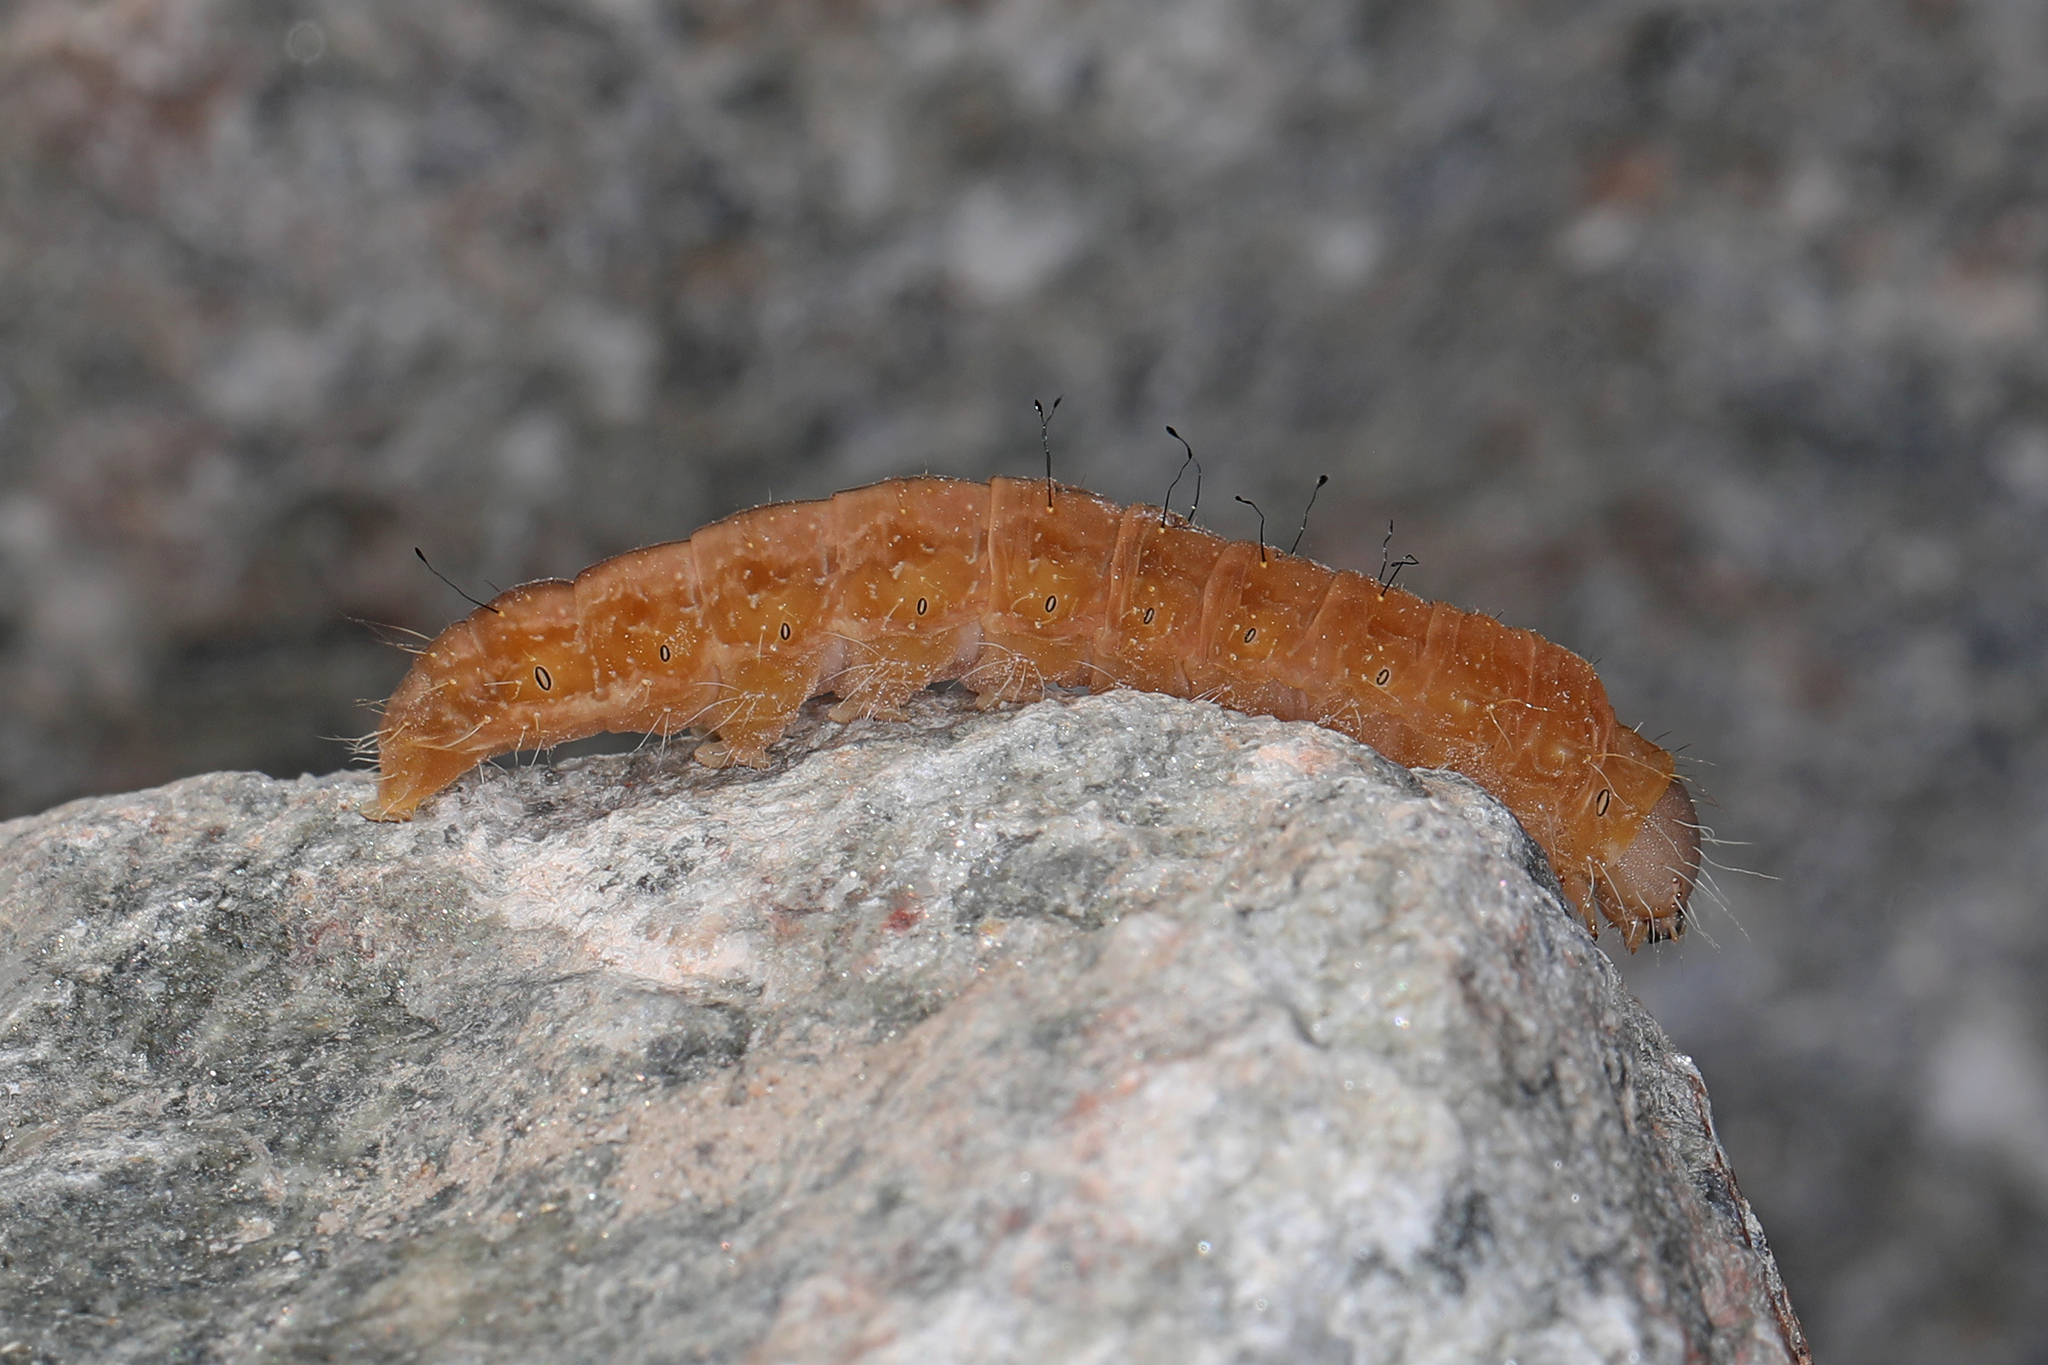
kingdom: Animalia
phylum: Arthropoda
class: Insecta
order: Lepidoptera
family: Noctuidae
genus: Acronicta
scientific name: Acronicta afflicta
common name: Afflicted dagger moth
